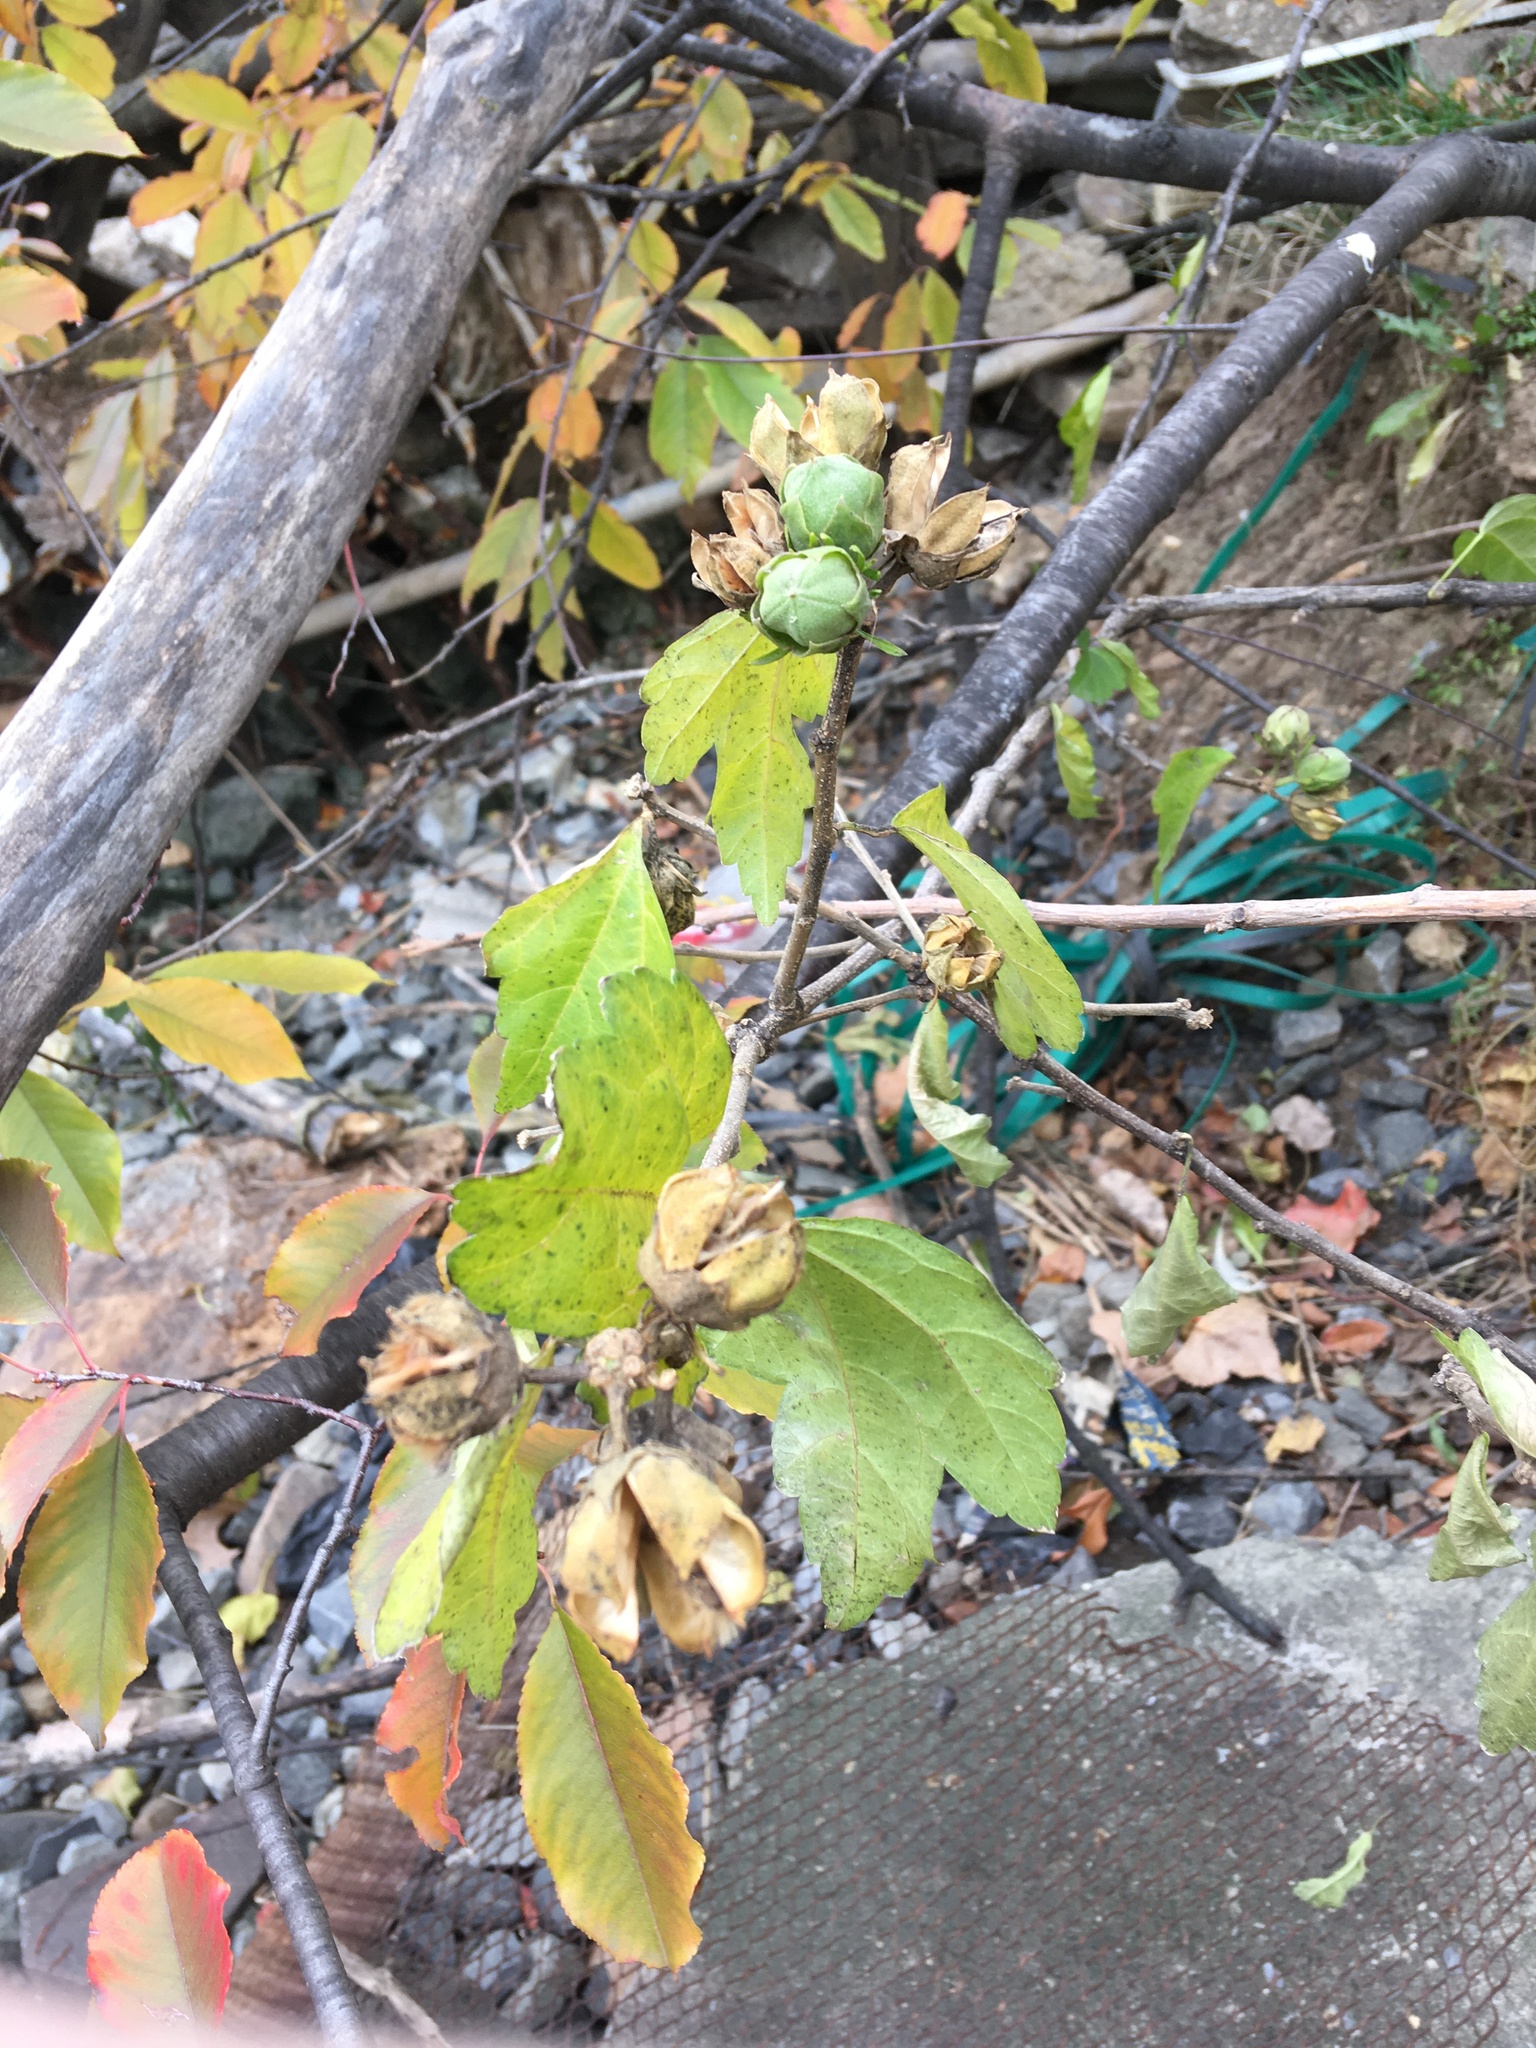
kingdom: Plantae
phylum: Tracheophyta
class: Magnoliopsida
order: Malvales
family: Malvaceae
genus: Hibiscus
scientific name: Hibiscus syriacus
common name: Syrian ketmia
